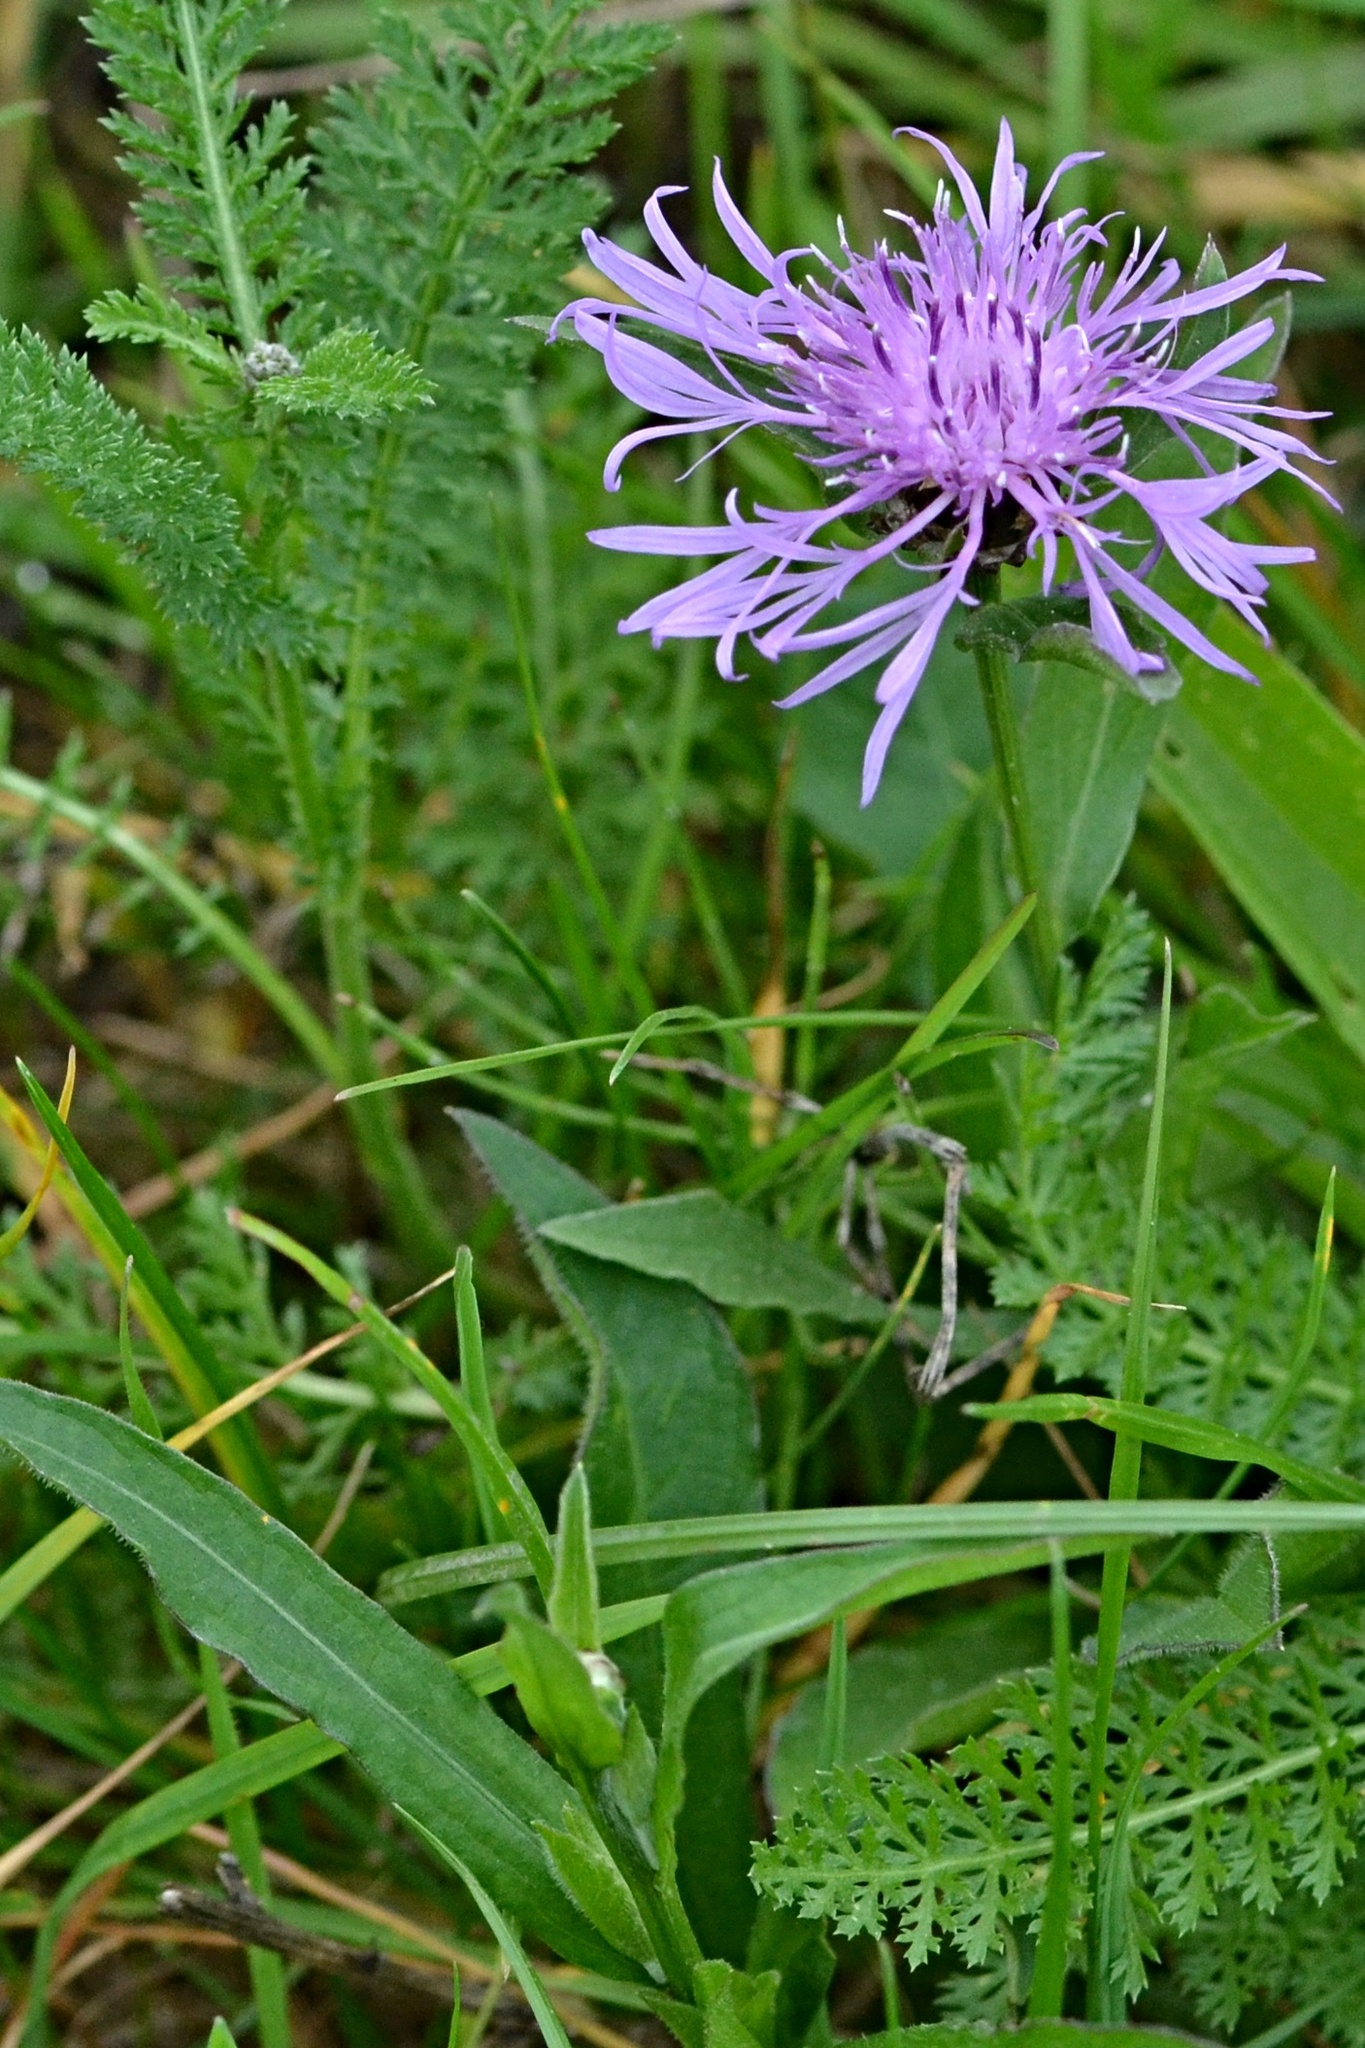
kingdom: Plantae
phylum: Tracheophyta
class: Magnoliopsida
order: Asterales
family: Asteraceae
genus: Centaurea
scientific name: Centaurea jacea
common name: Brown knapweed
